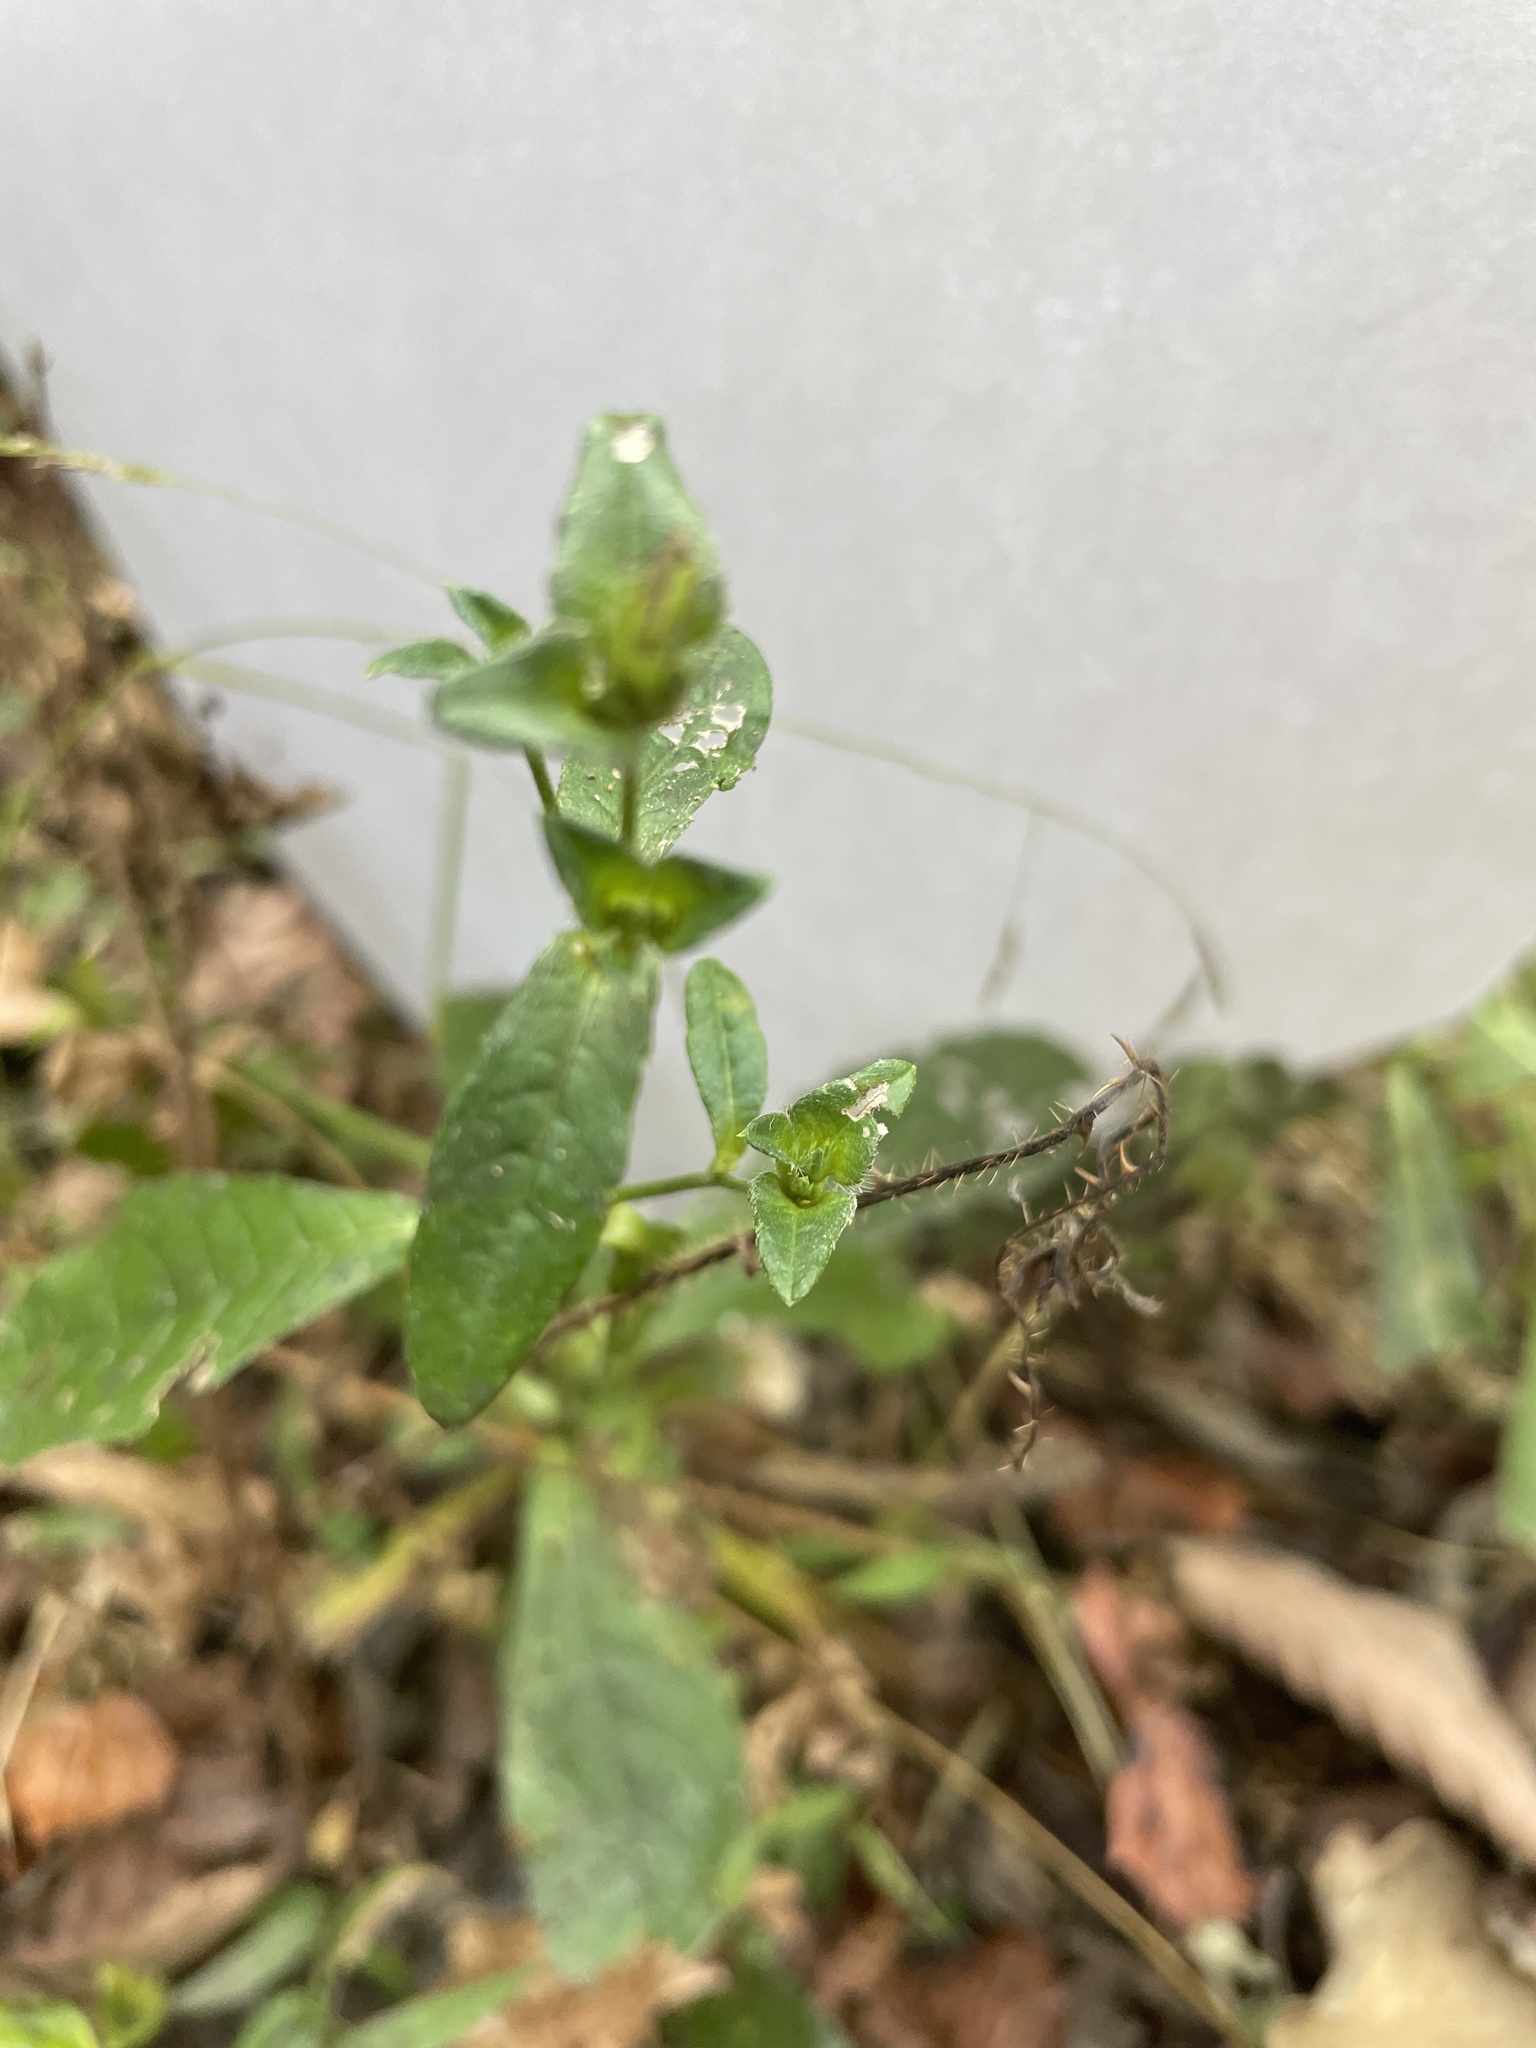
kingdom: Plantae
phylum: Tracheophyta
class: Magnoliopsida
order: Asterales
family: Asteraceae
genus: Elephantopus
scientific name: Elephantopus carolinianus
